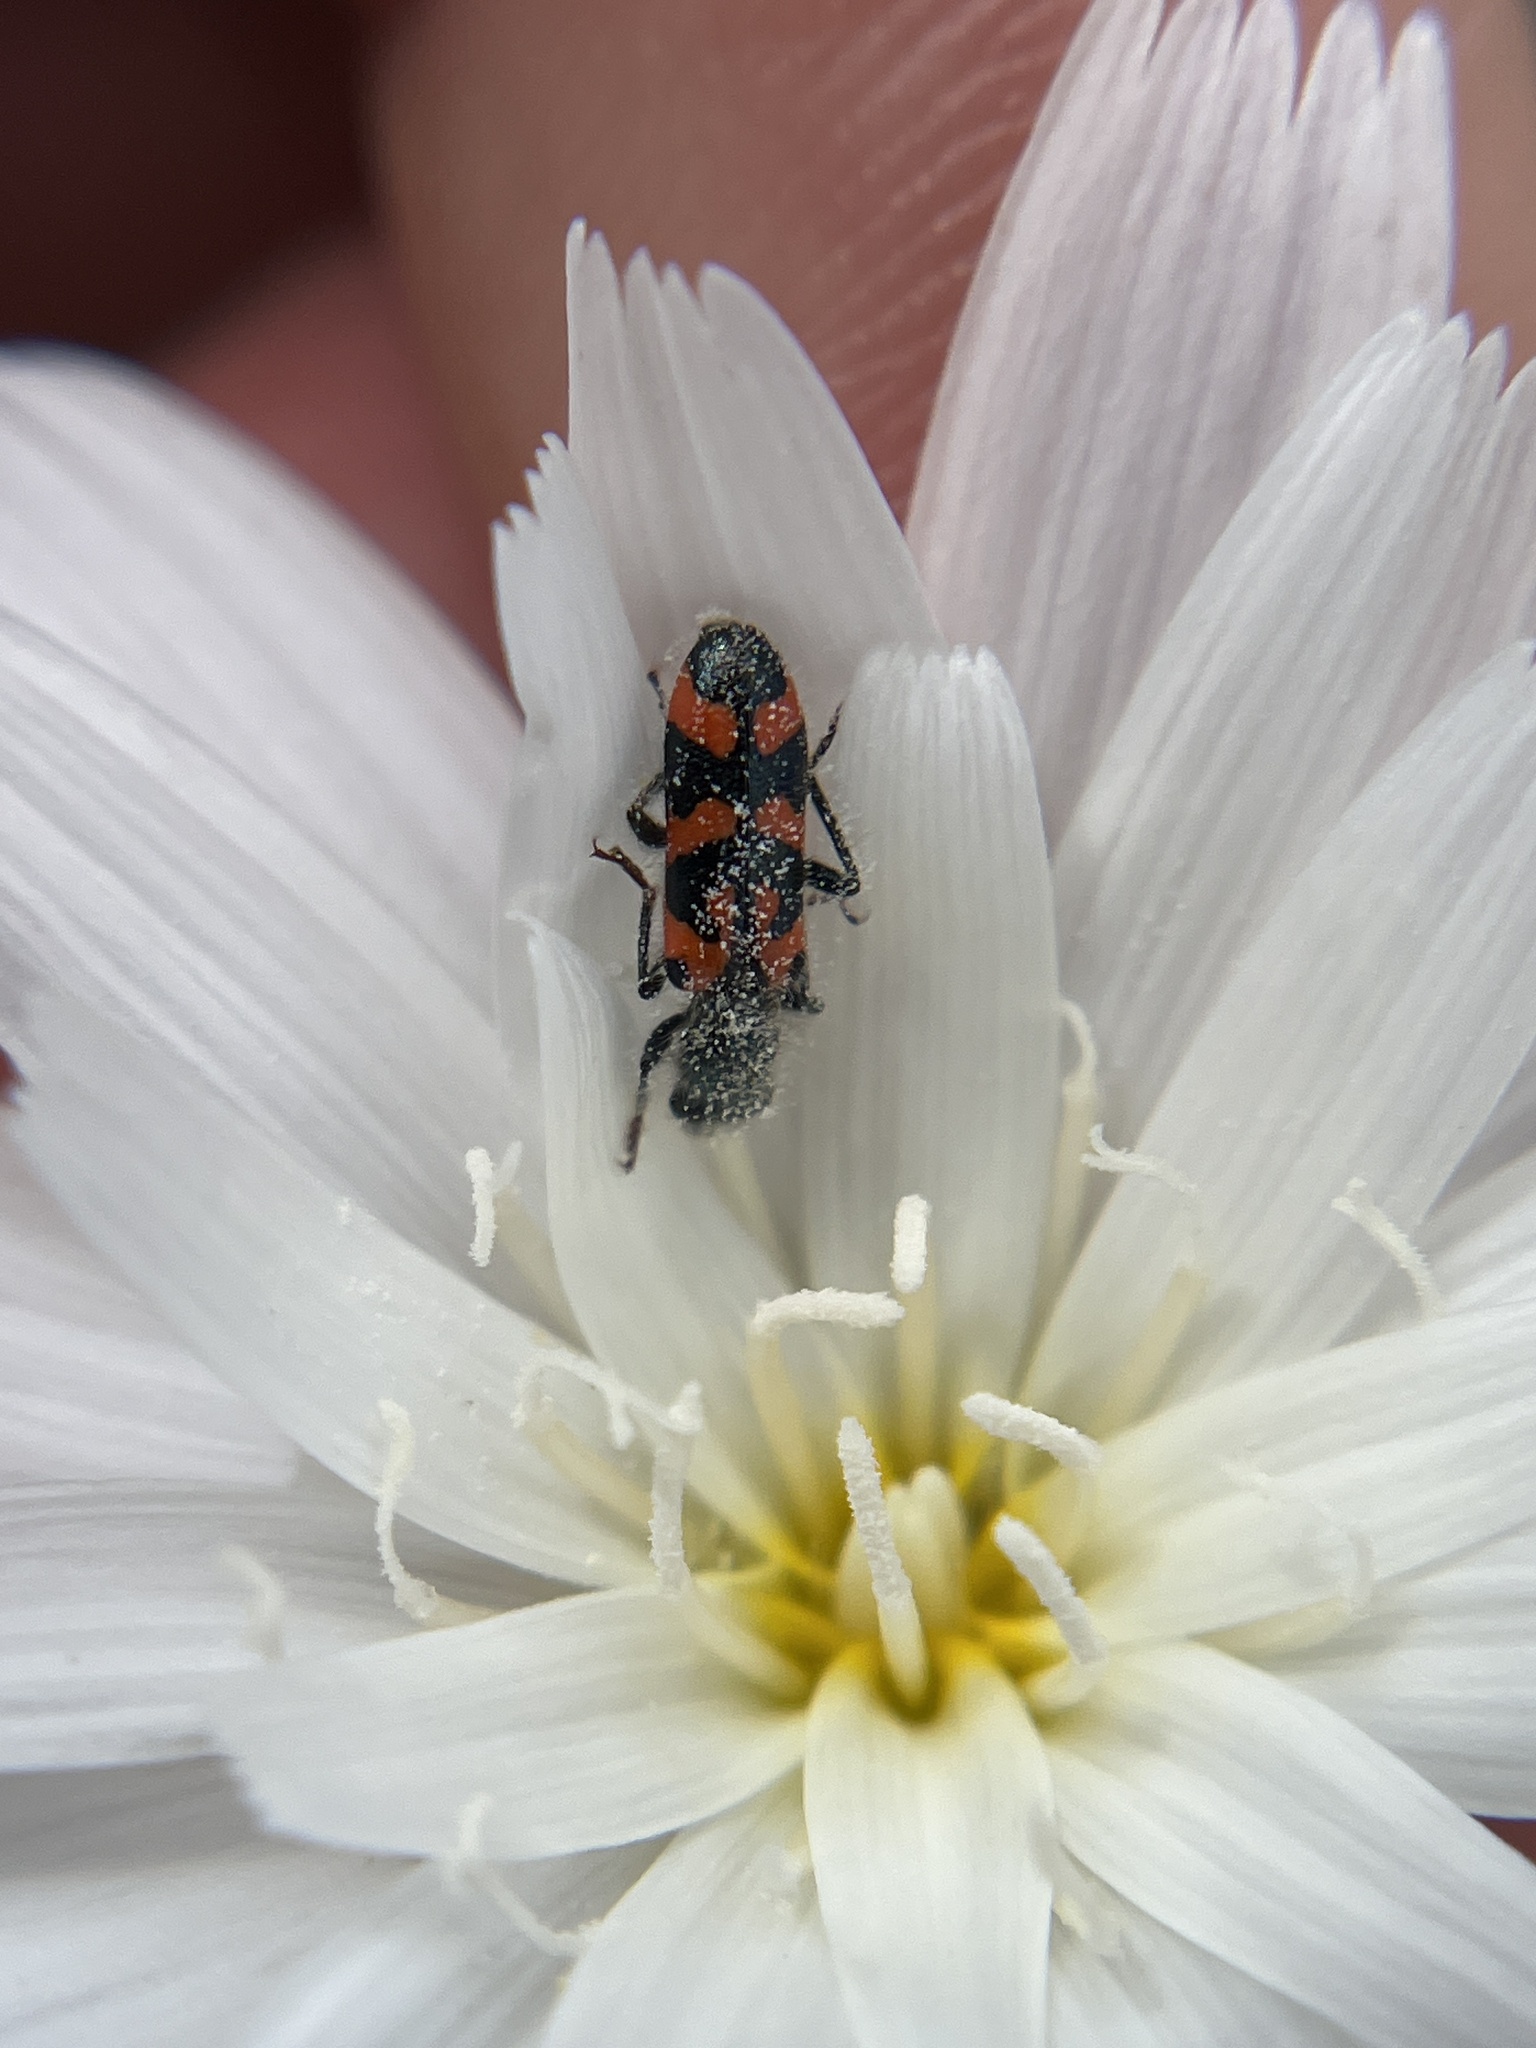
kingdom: Animalia
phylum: Arthropoda
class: Insecta
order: Coleoptera
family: Cleridae
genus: Trichodes
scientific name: Trichodes ornatus
